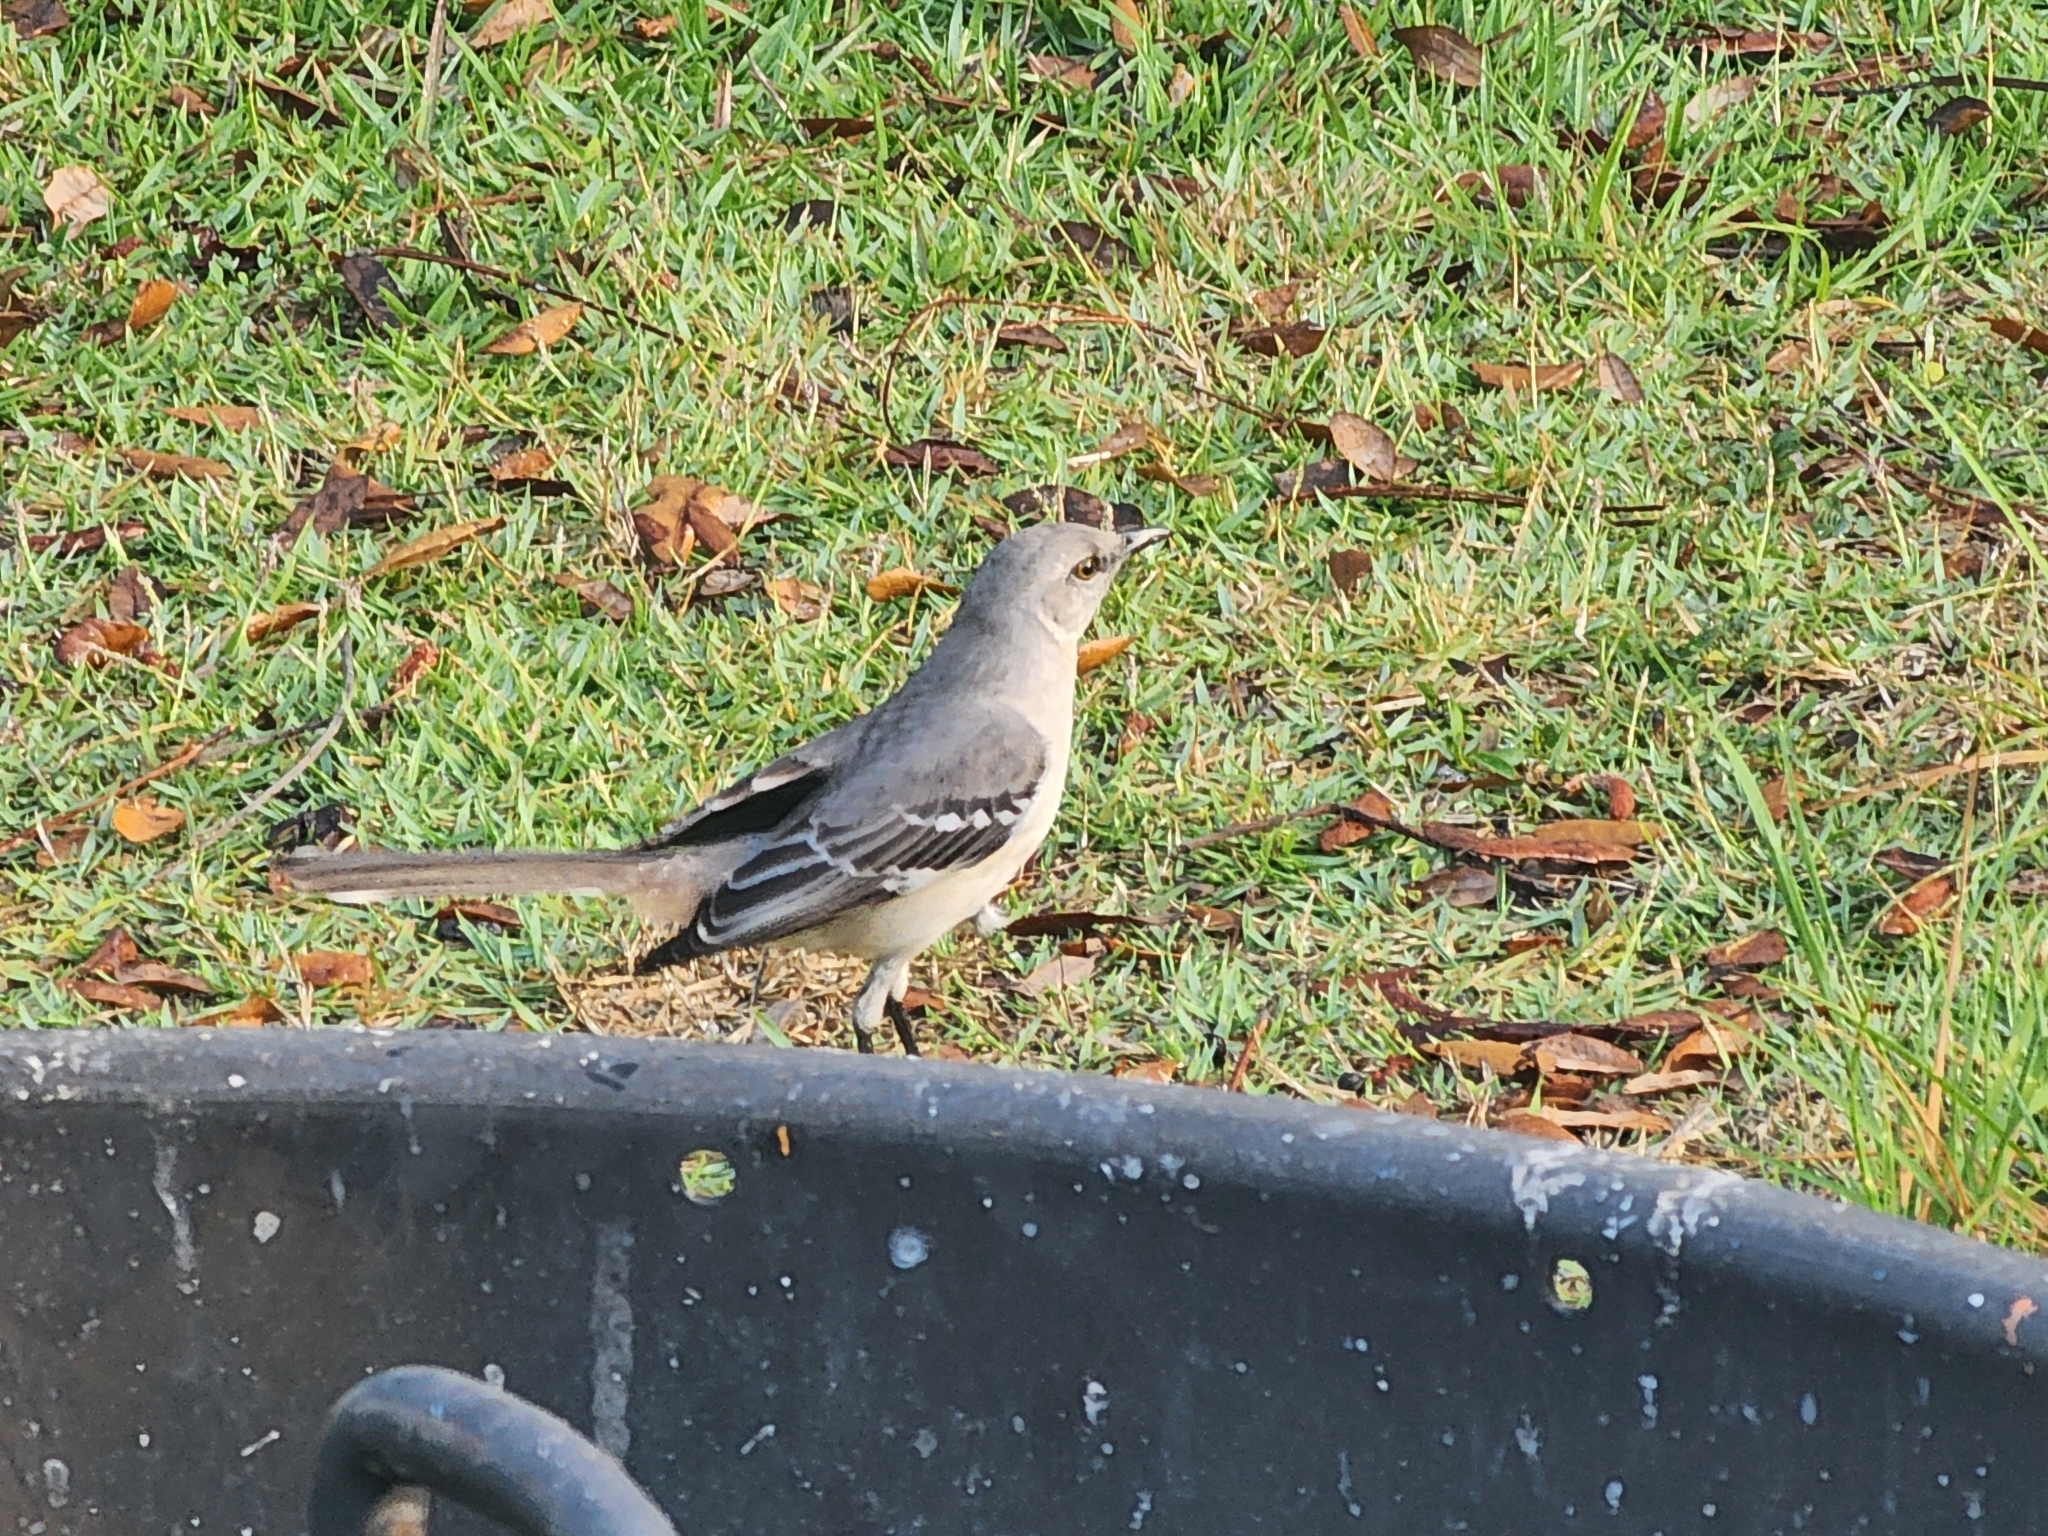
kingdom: Animalia
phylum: Chordata
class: Aves
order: Passeriformes
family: Mimidae
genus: Mimus
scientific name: Mimus polyglottos
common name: Northern mockingbird
